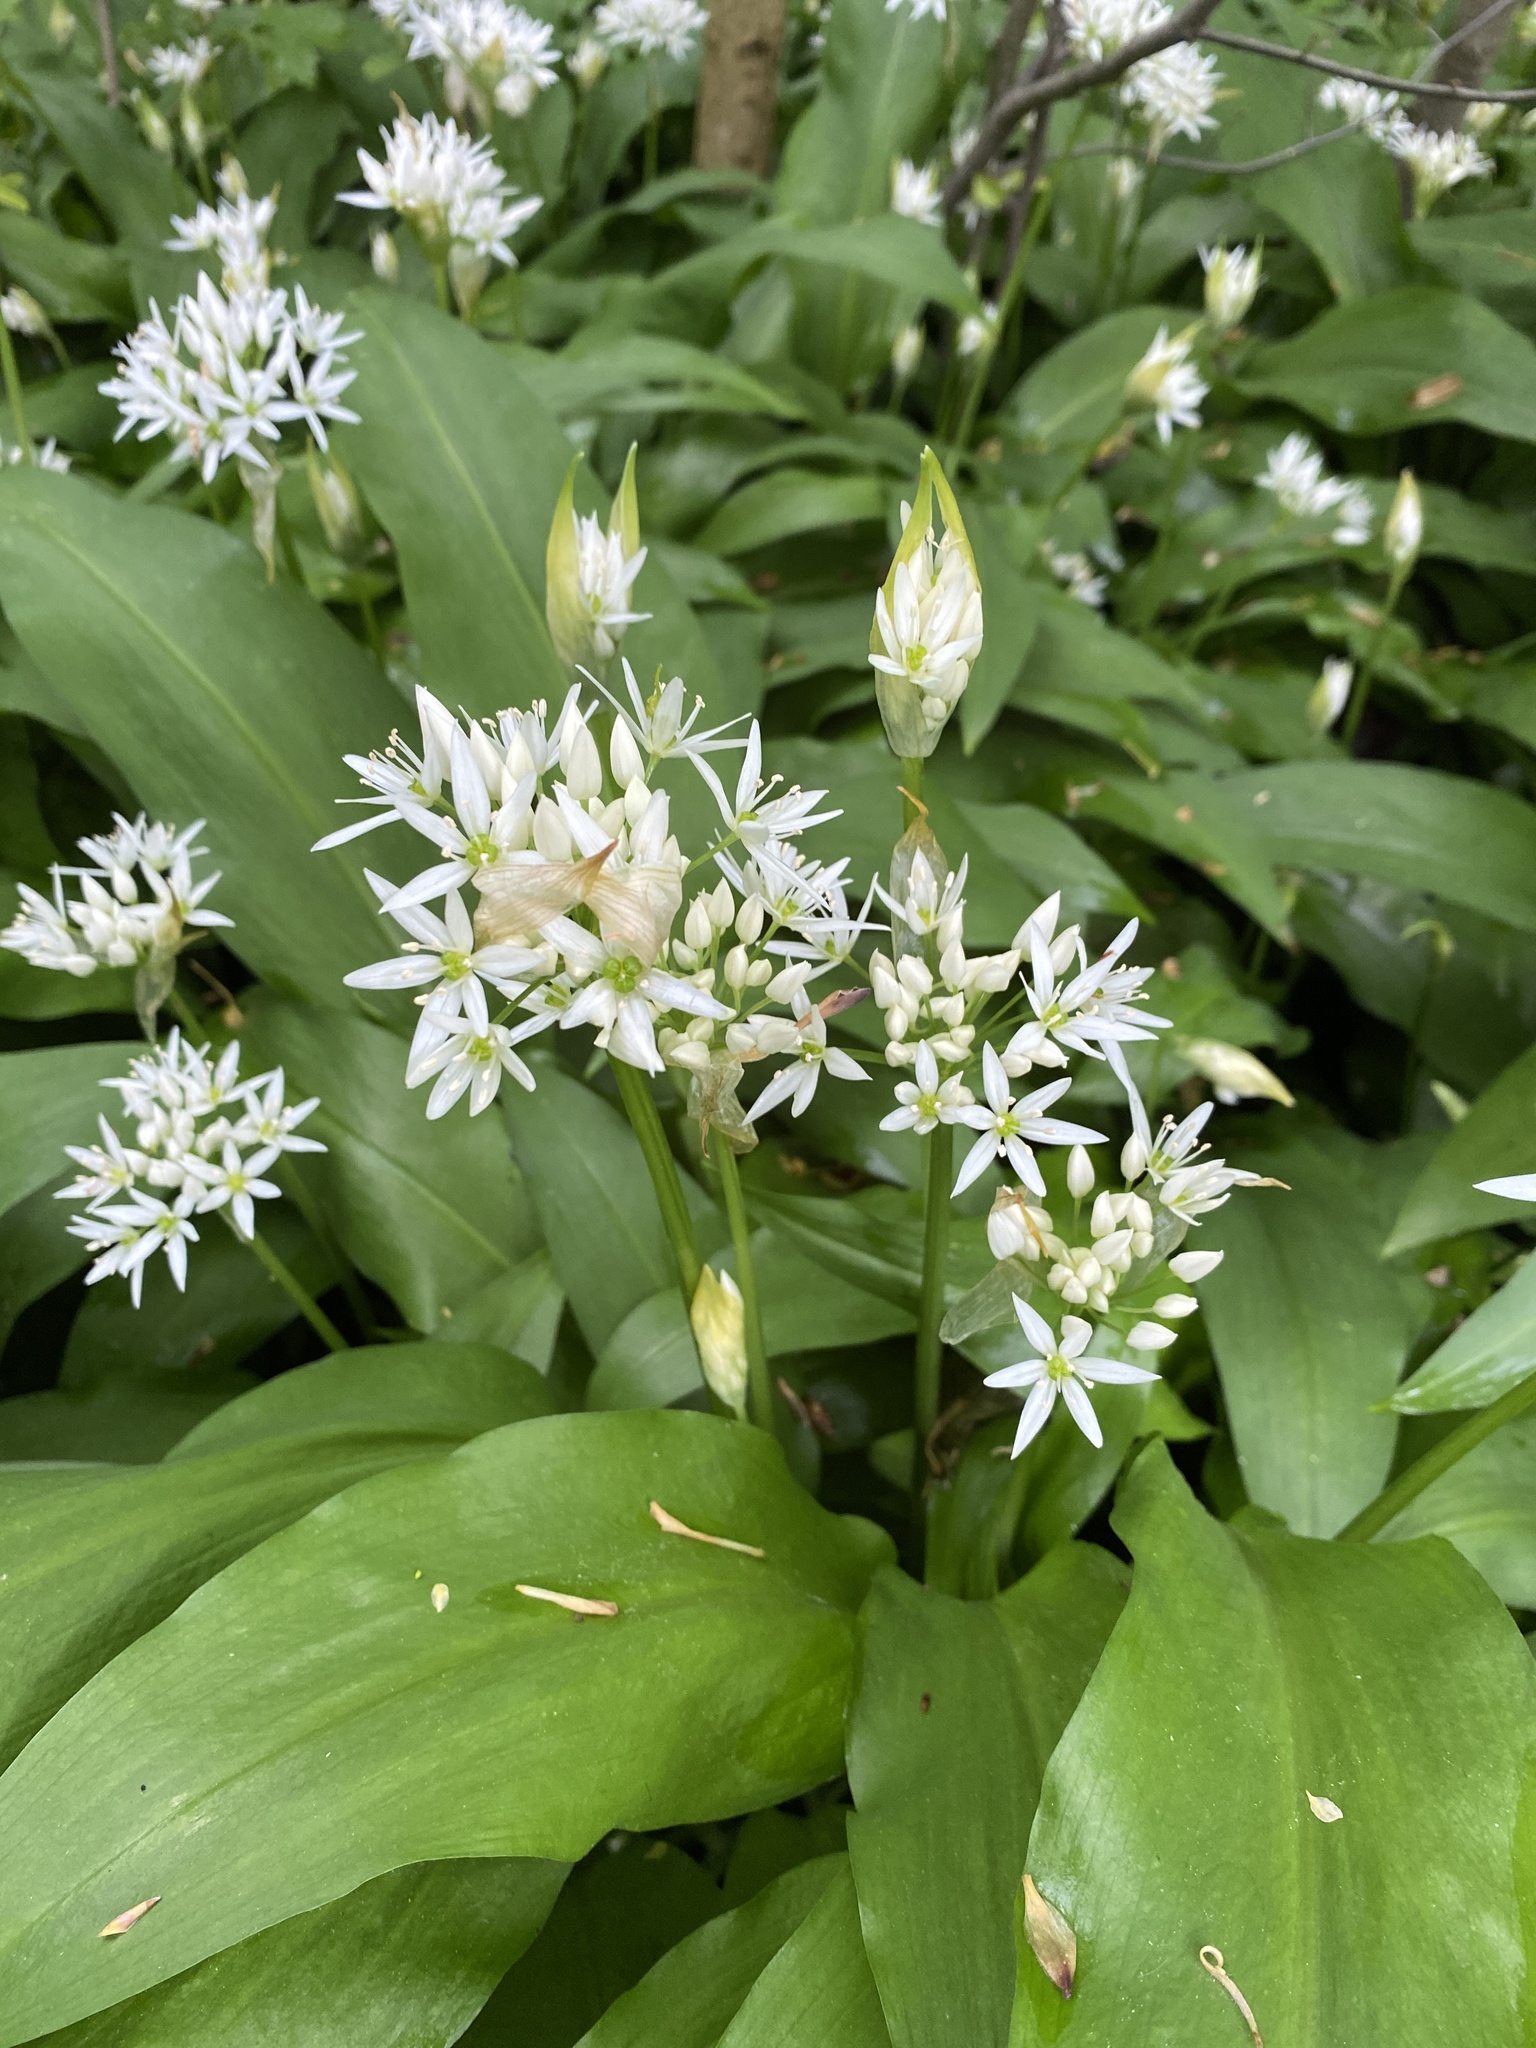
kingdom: Plantae
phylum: Tracheophyta
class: Liliopsida
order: Asparagales
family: Amaryllidaceae
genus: Allium
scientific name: Allium ursinum
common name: Ramsons
